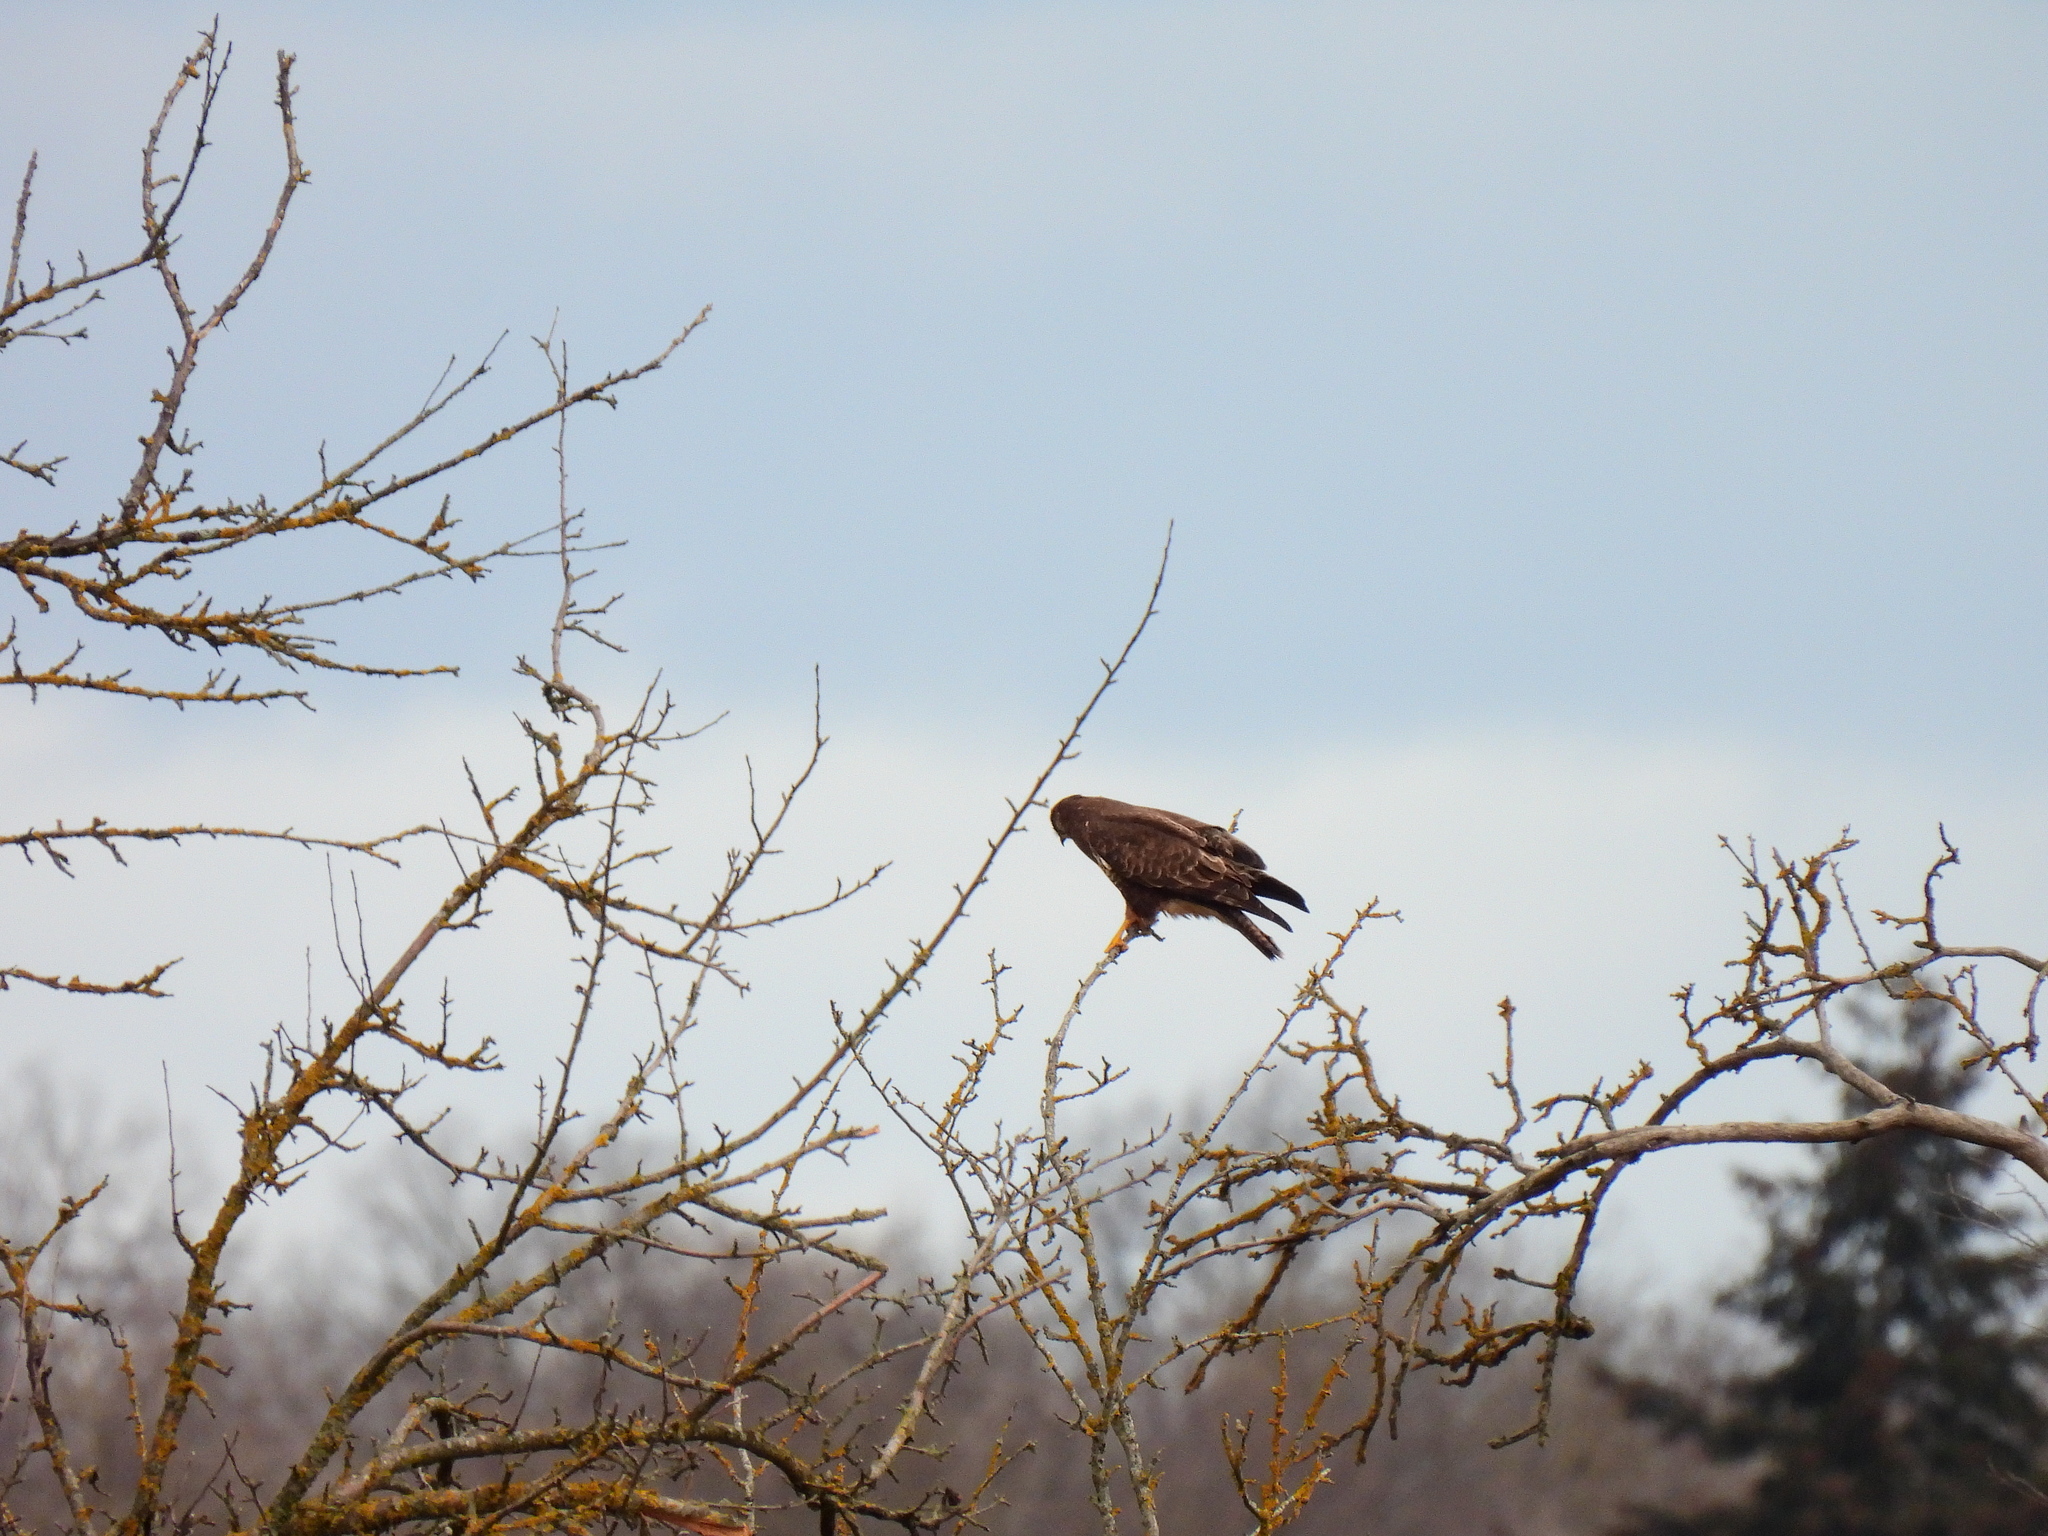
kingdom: Animalia
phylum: Chordata
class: Aves
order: Accipitriformes
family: Accipitridae
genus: Buteo
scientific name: Buteo buteo
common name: Common buzzard
